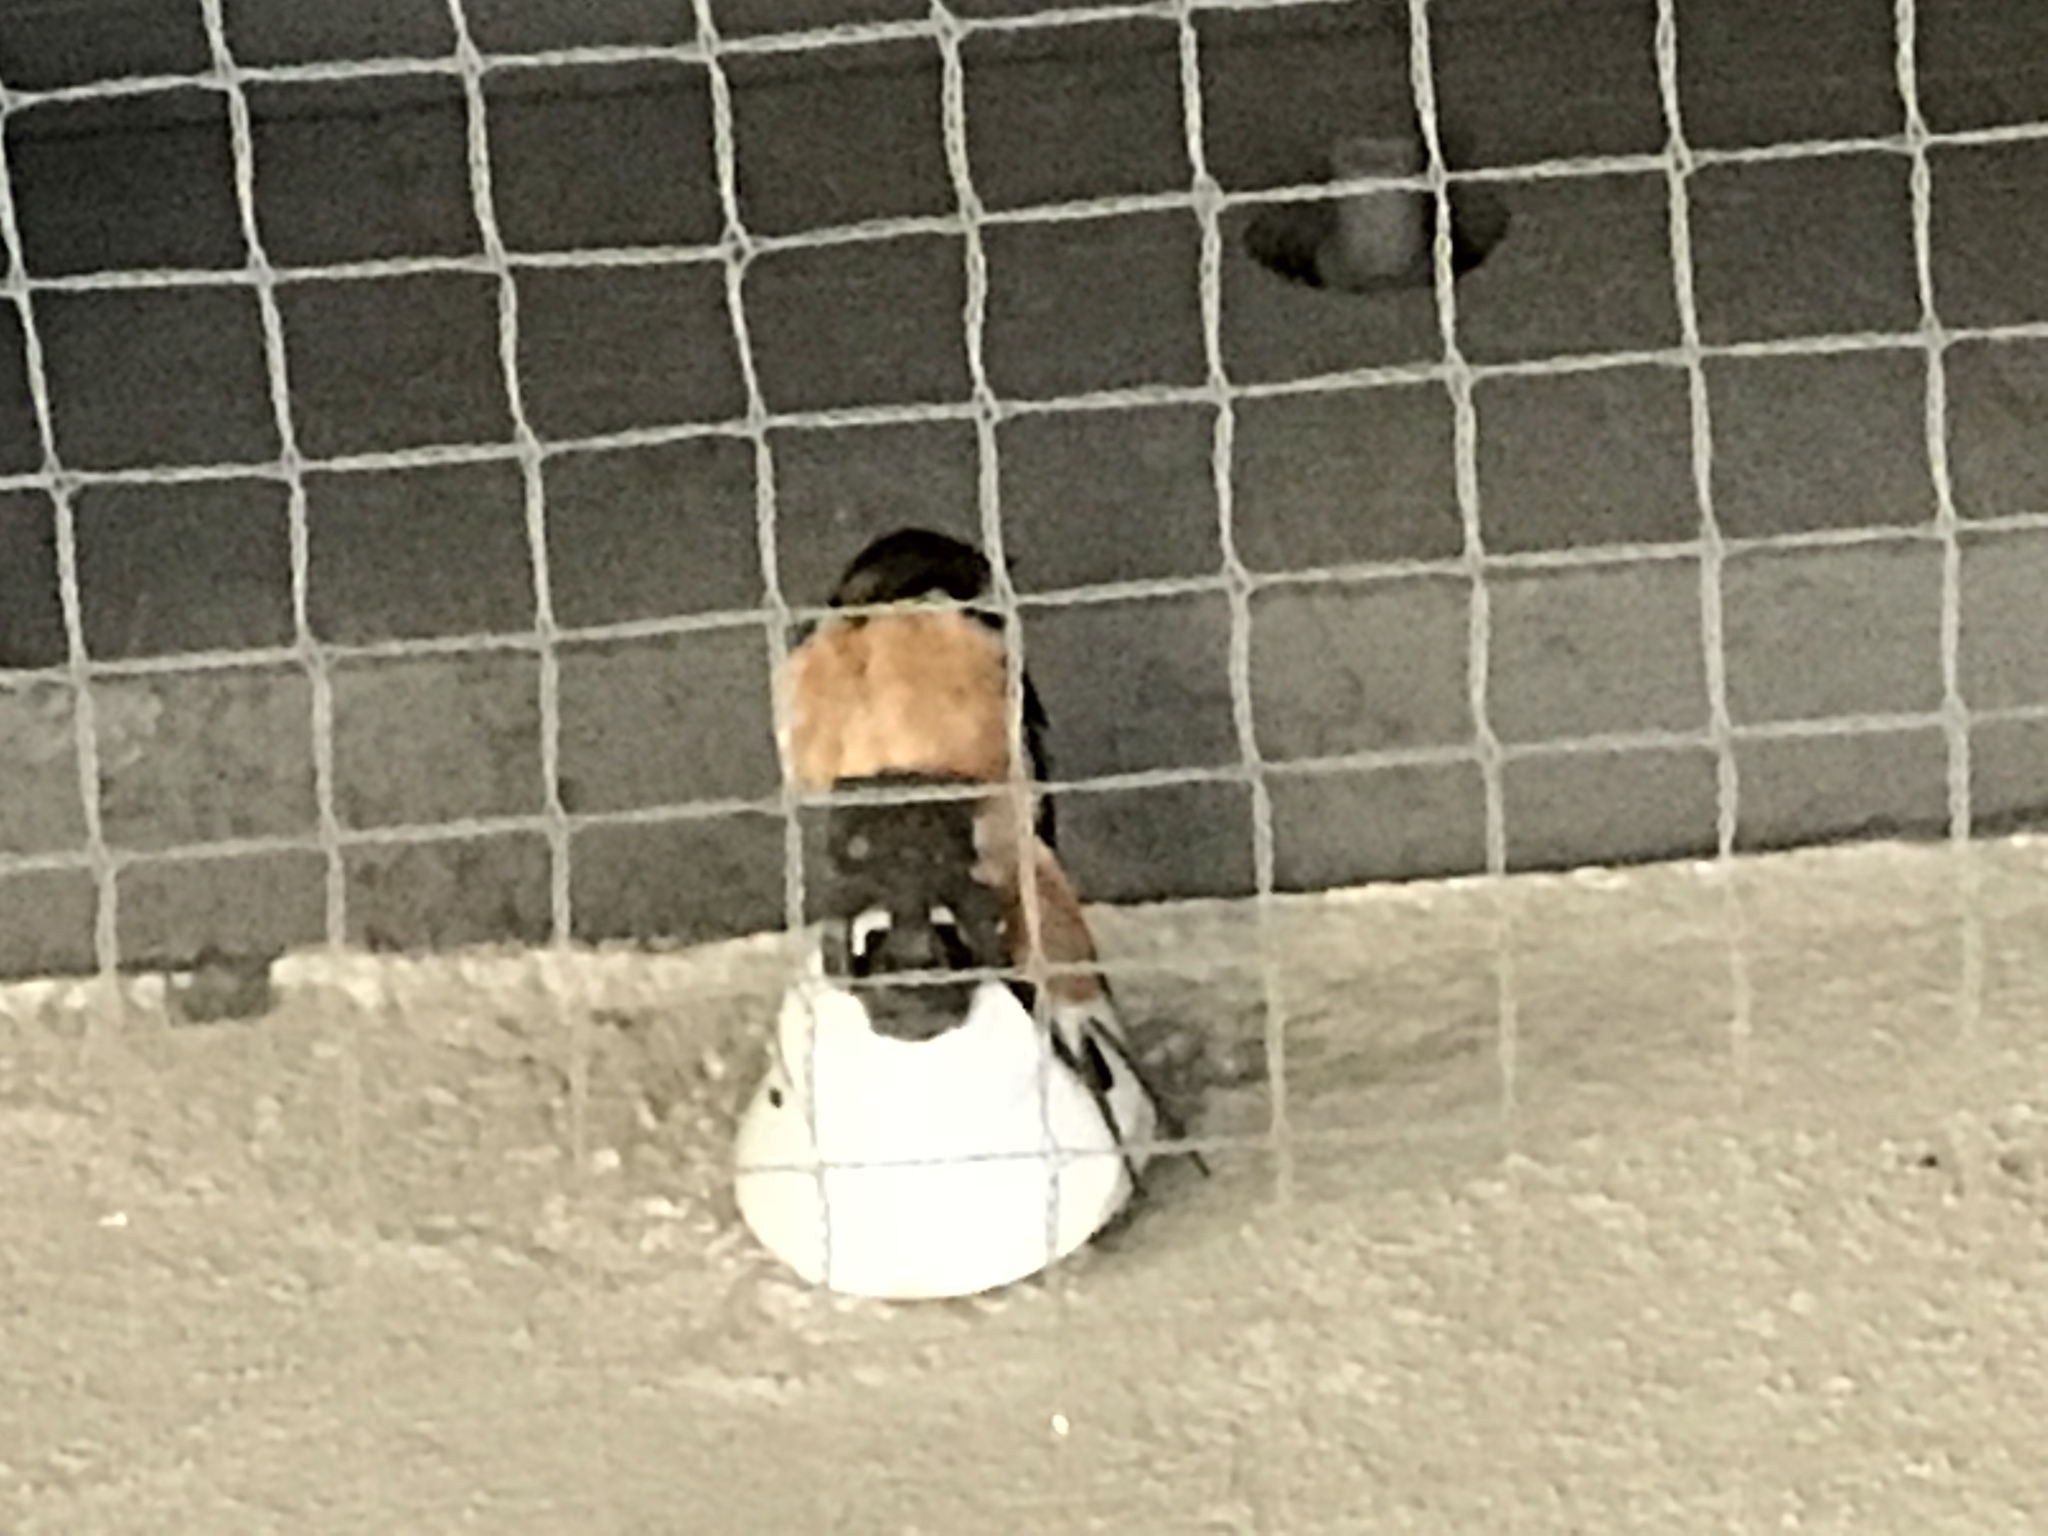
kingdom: Animalia
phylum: Chordata
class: Aves
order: Passeriformes
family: Hirundinidae
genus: Hirundo
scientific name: Hirundo rustica
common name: Barn swallow
